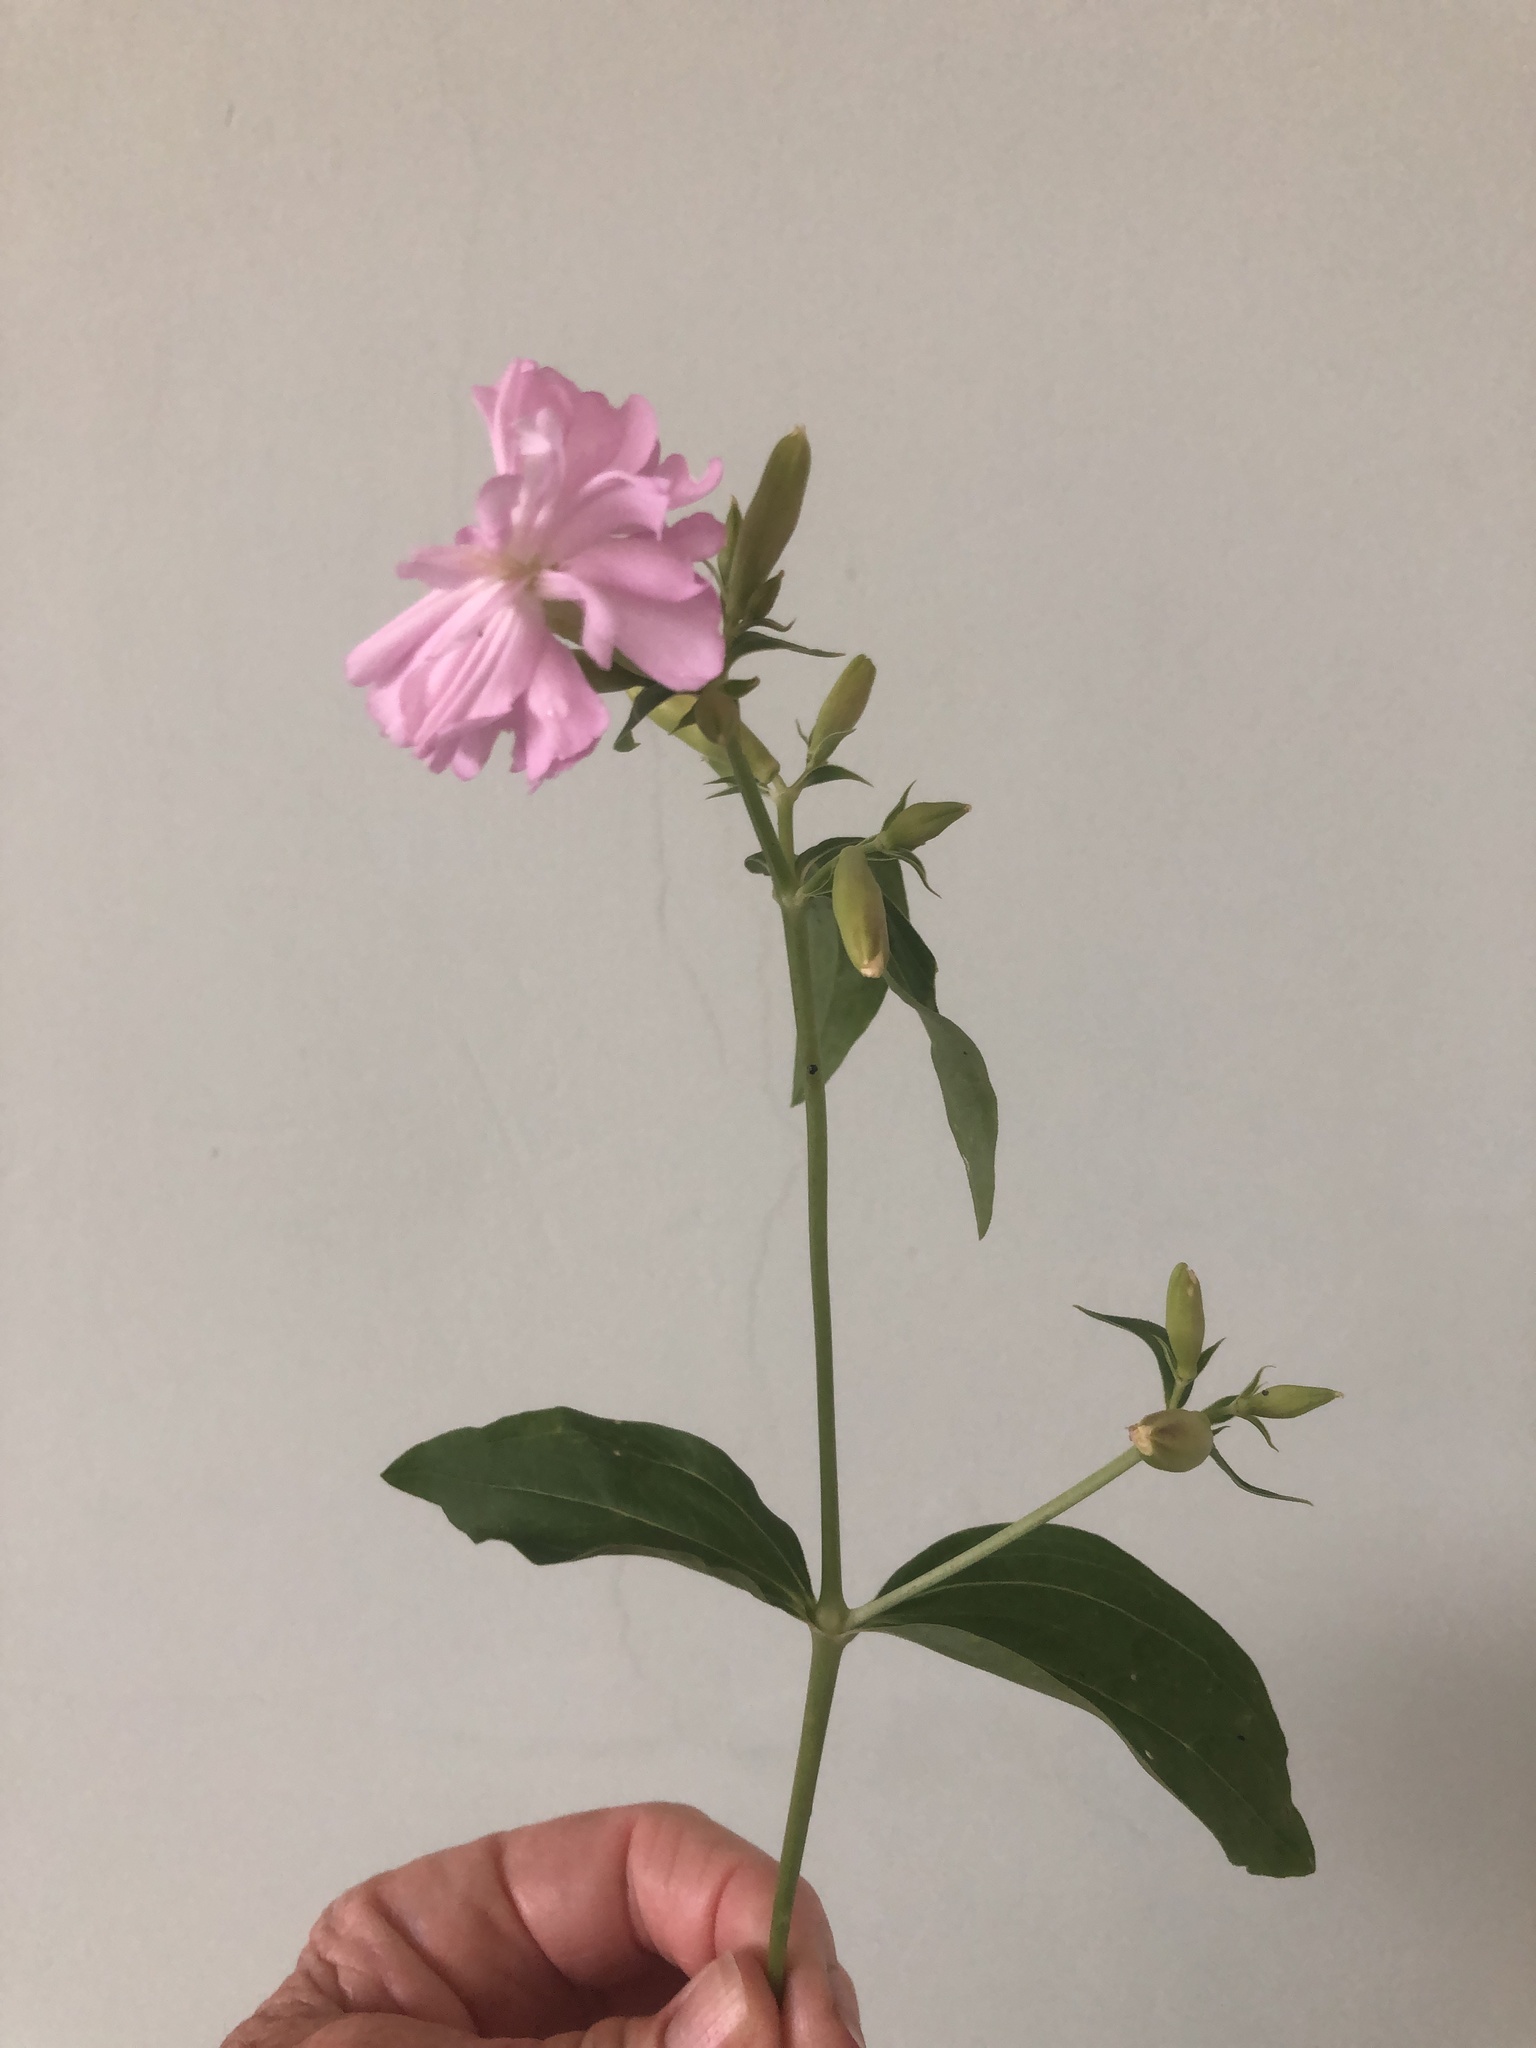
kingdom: Plantae
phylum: Tracheophyta
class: Magnoliopsida
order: Caryophyllales
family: Caryophyllaceae
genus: Saponaria
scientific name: Saponaria officinalis
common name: Soapwort
